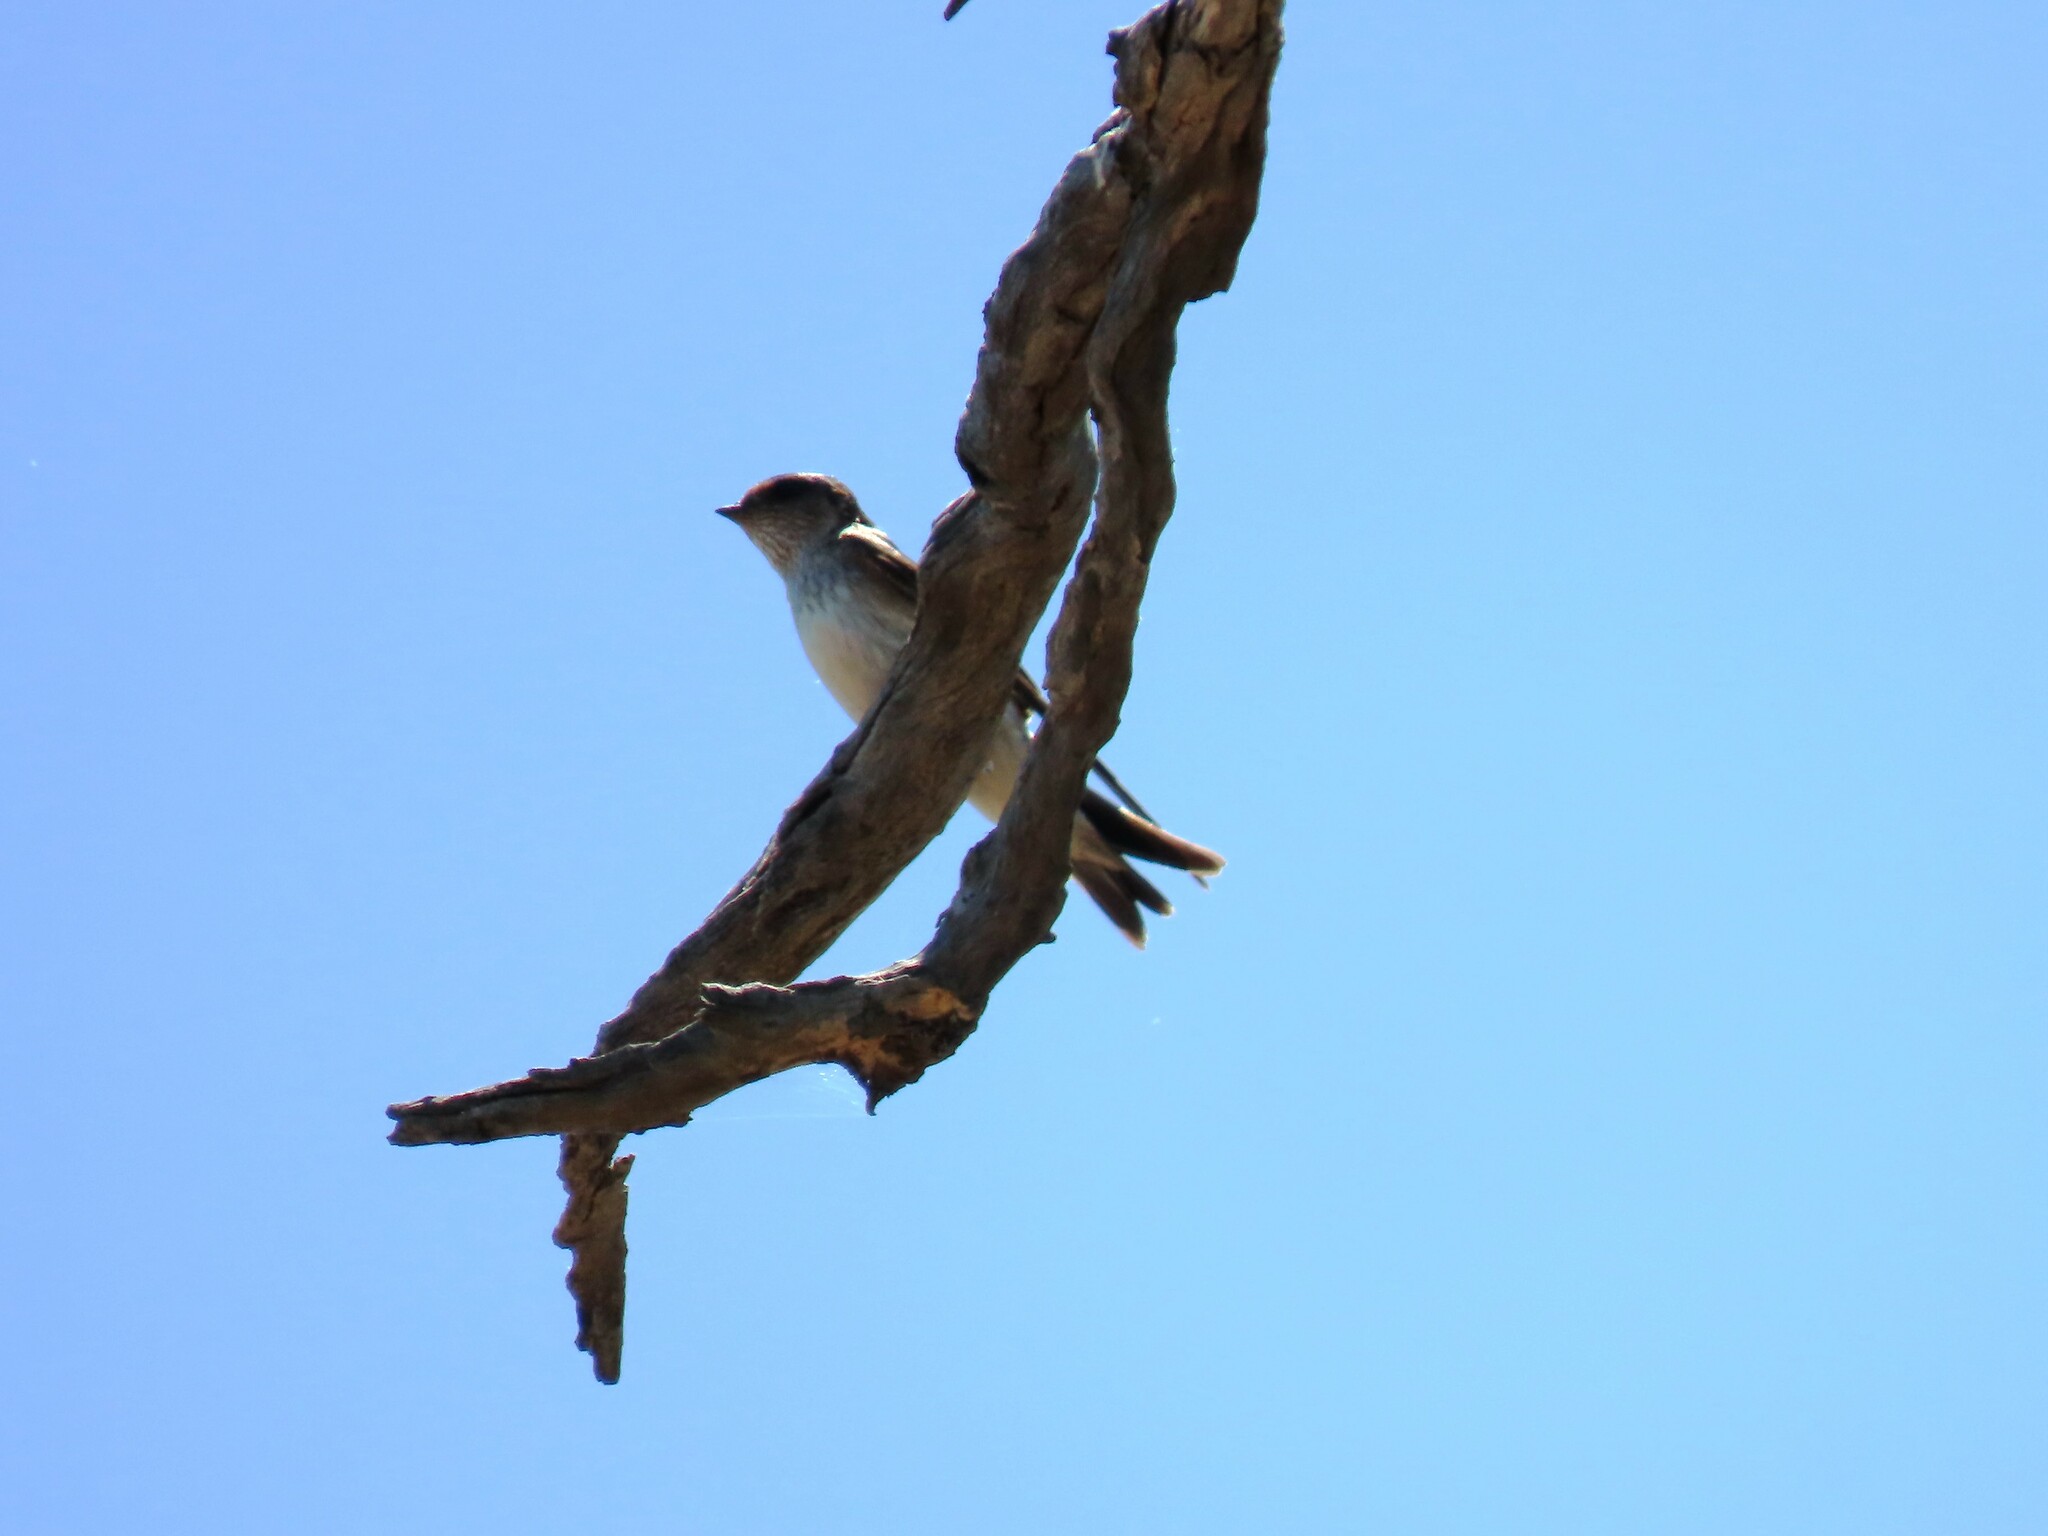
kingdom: Animalia
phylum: Chordata
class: Aves
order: Passeriformes
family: Hirundinidae
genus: Petrochelidon
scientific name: Petrochelidon nigricans
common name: Tree martin
